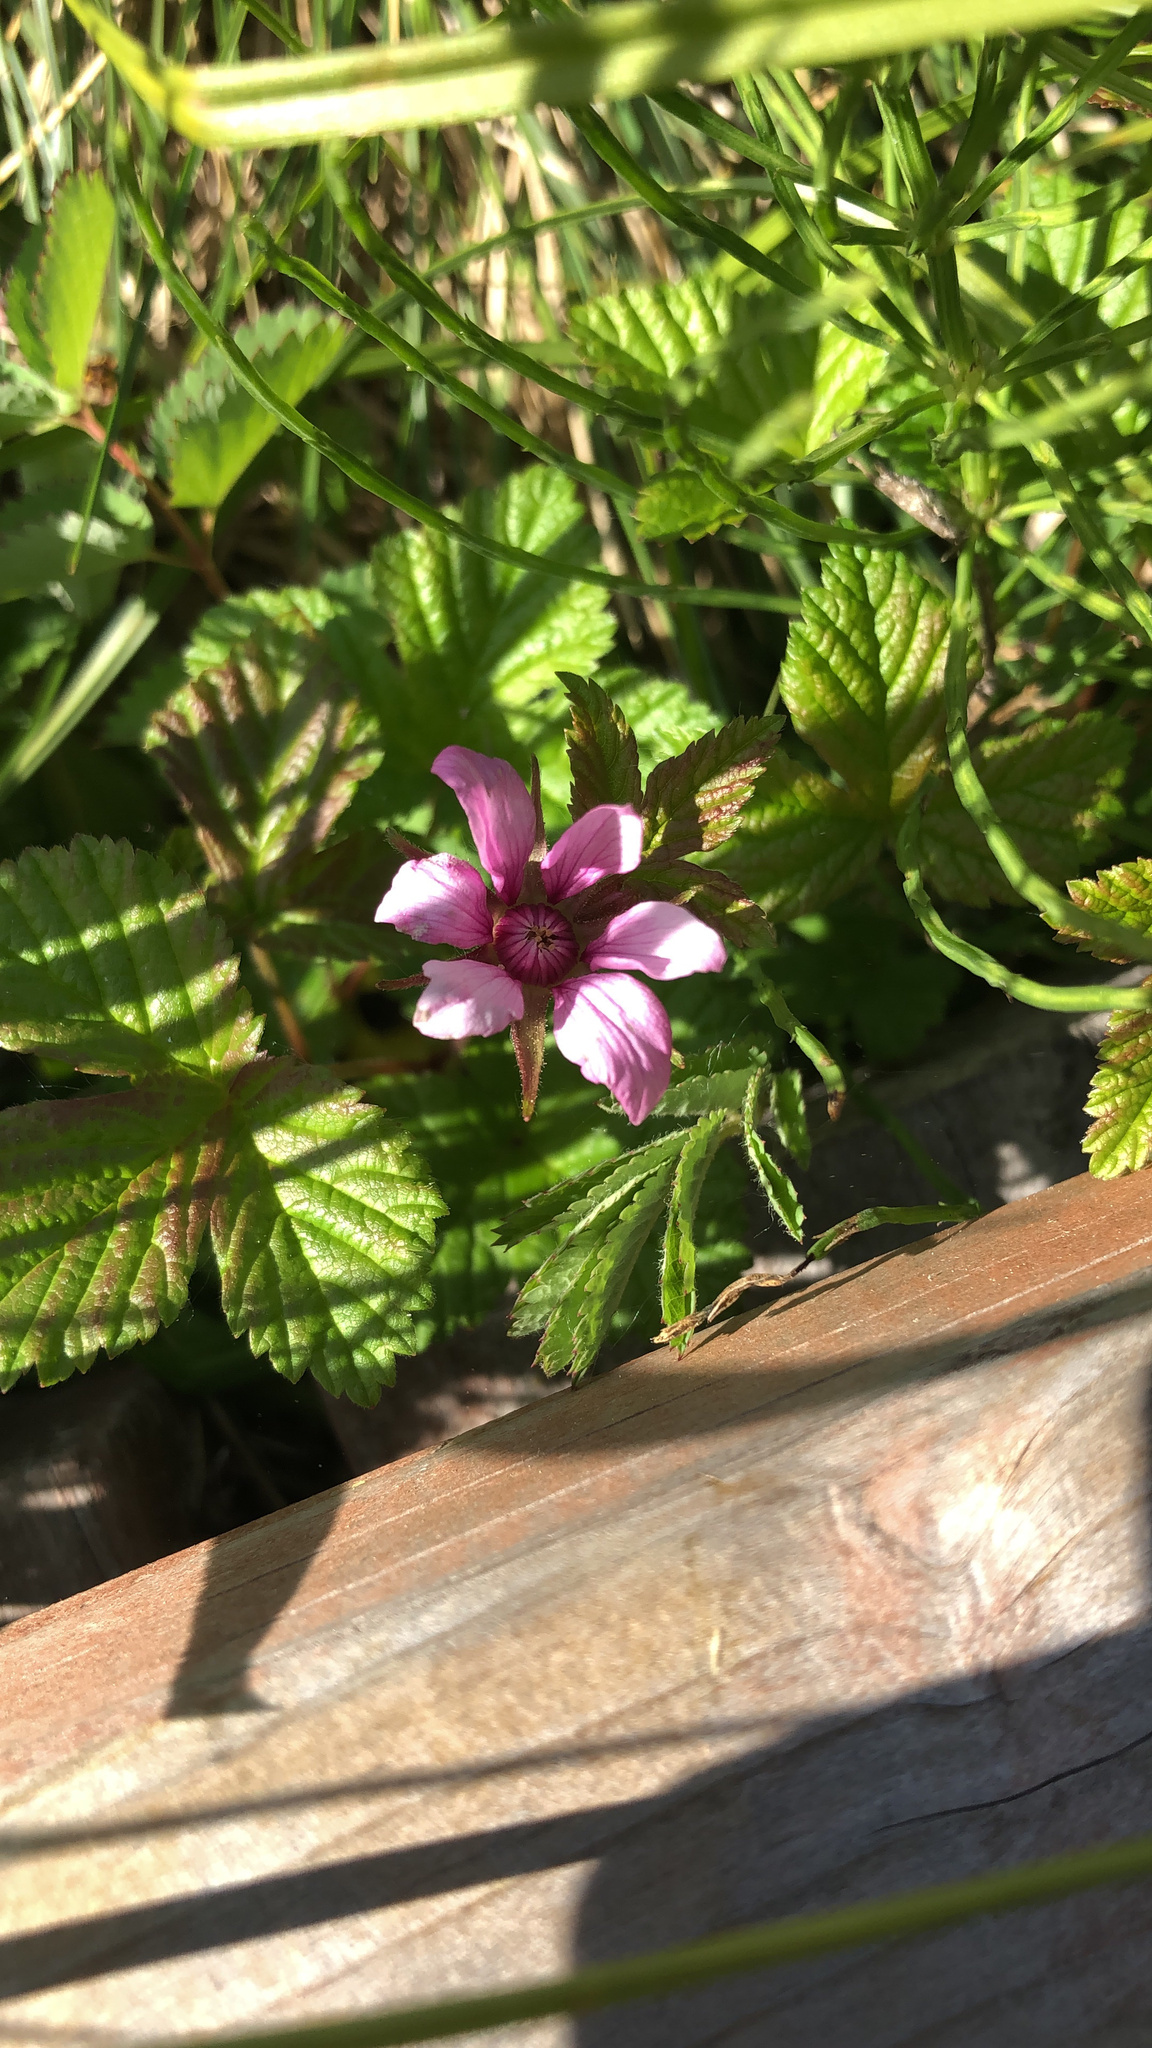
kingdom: Plantae
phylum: Tracheophyta
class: Magnoliopsida
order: Rosales
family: Rosaceae
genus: Rubus
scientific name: Rubus arcticus
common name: Arctic bramble
